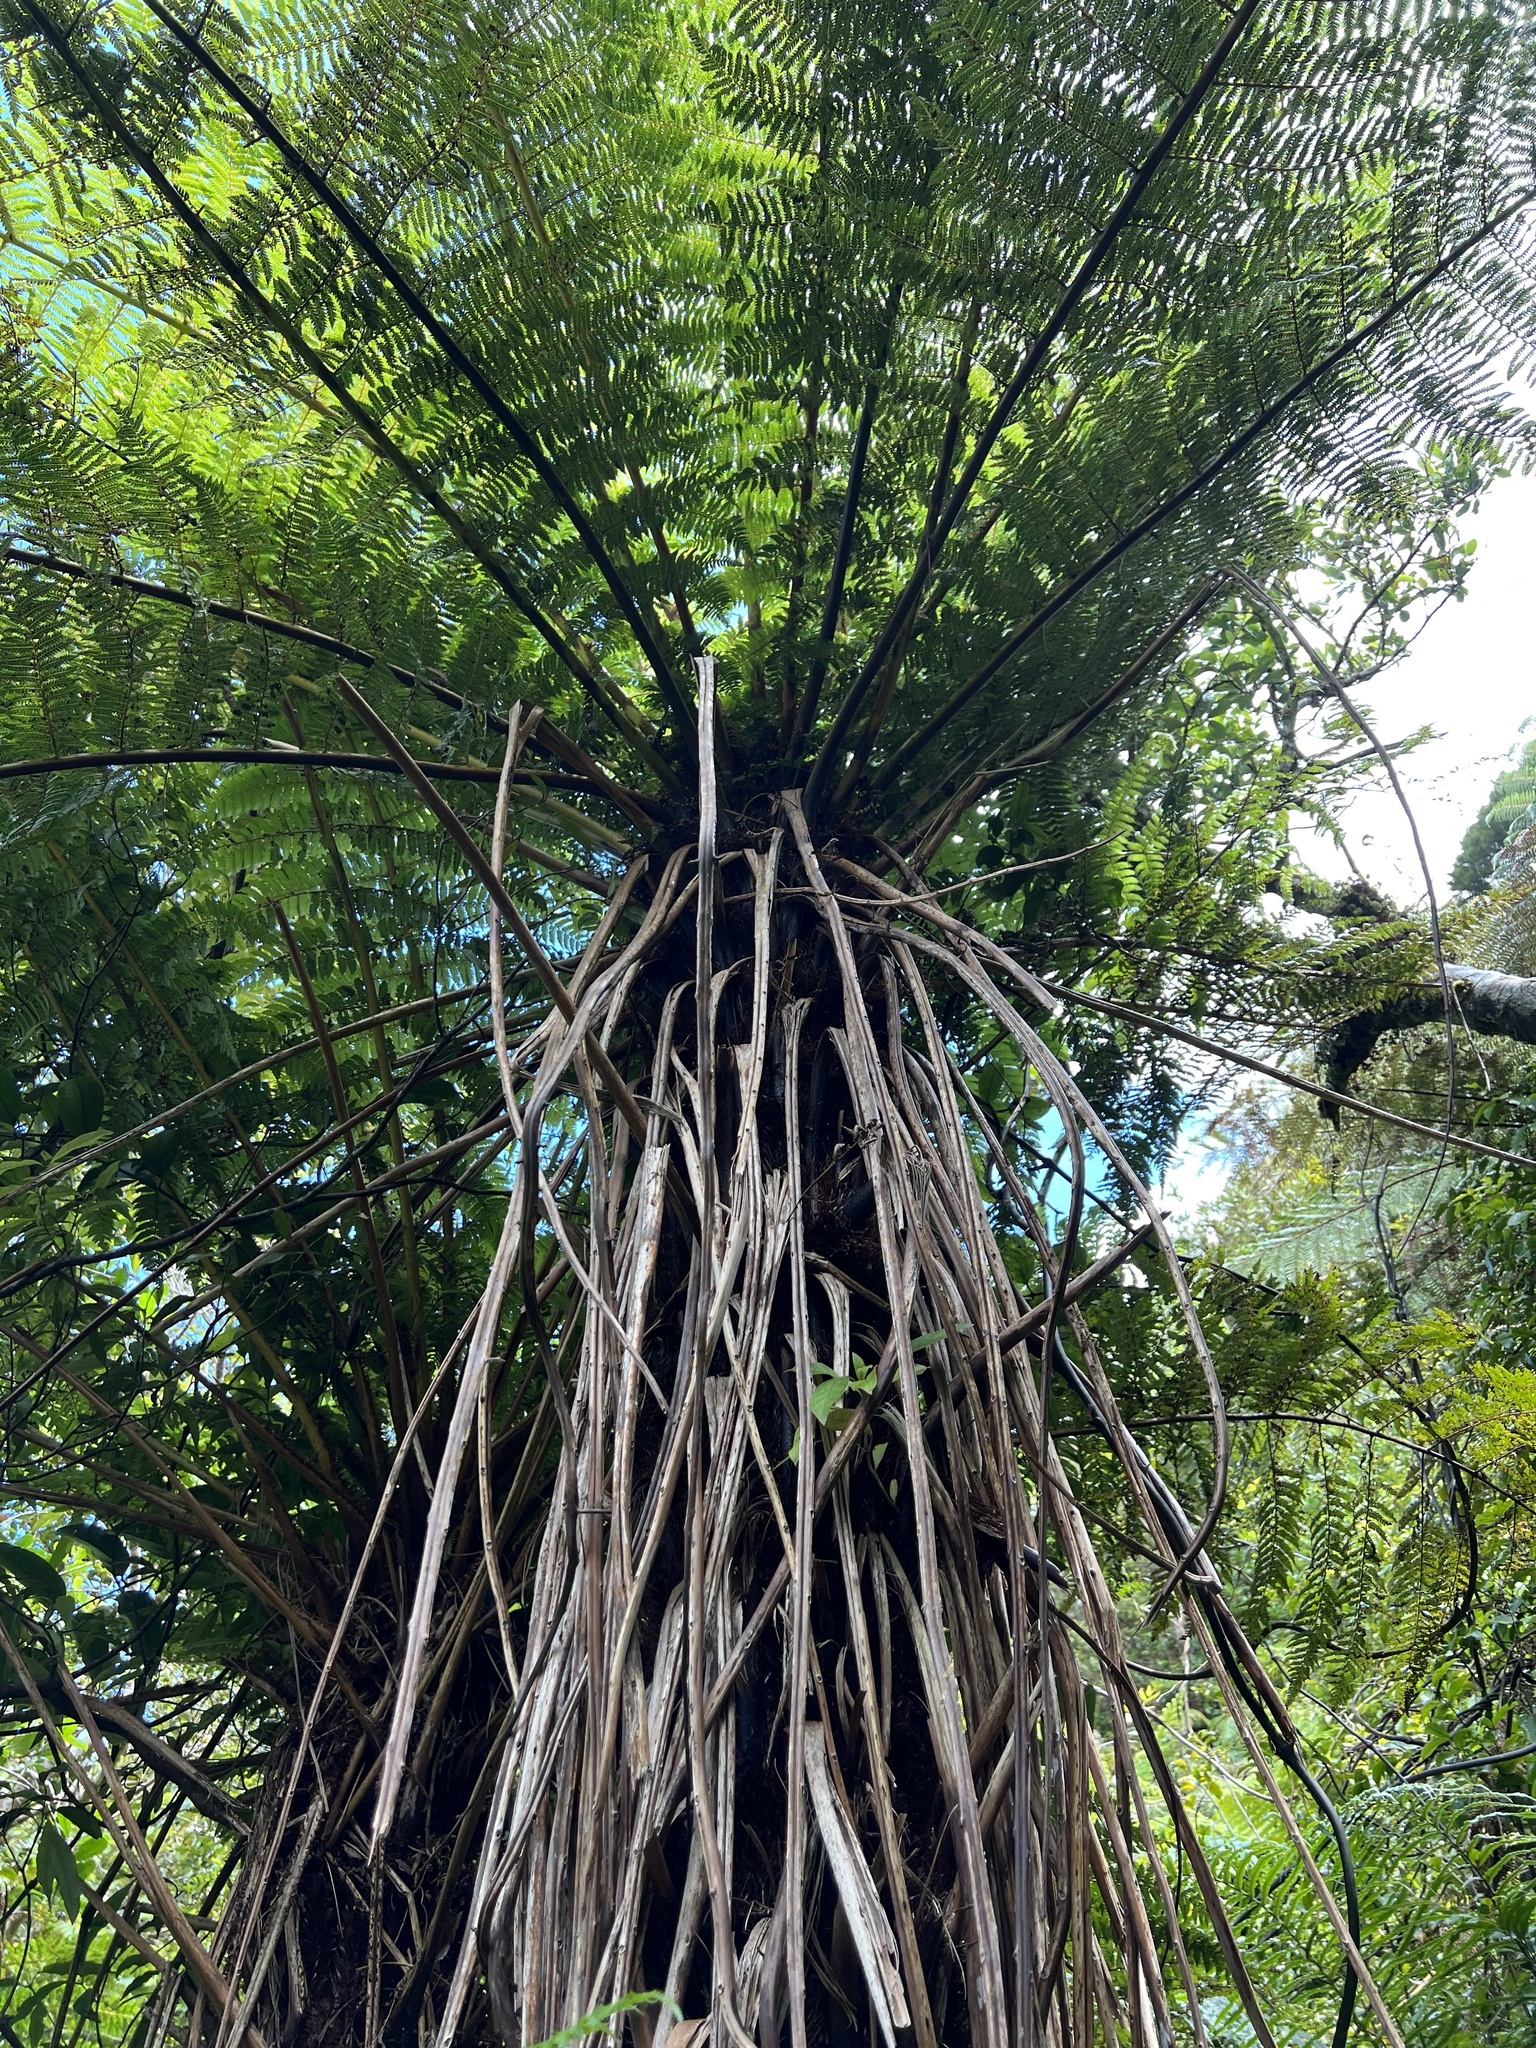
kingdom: Plantae
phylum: Tracheophyta
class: Polypodiopsida
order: Cyatheales
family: Cyatheaceae
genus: Alsophila
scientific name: Alsophila smithii
